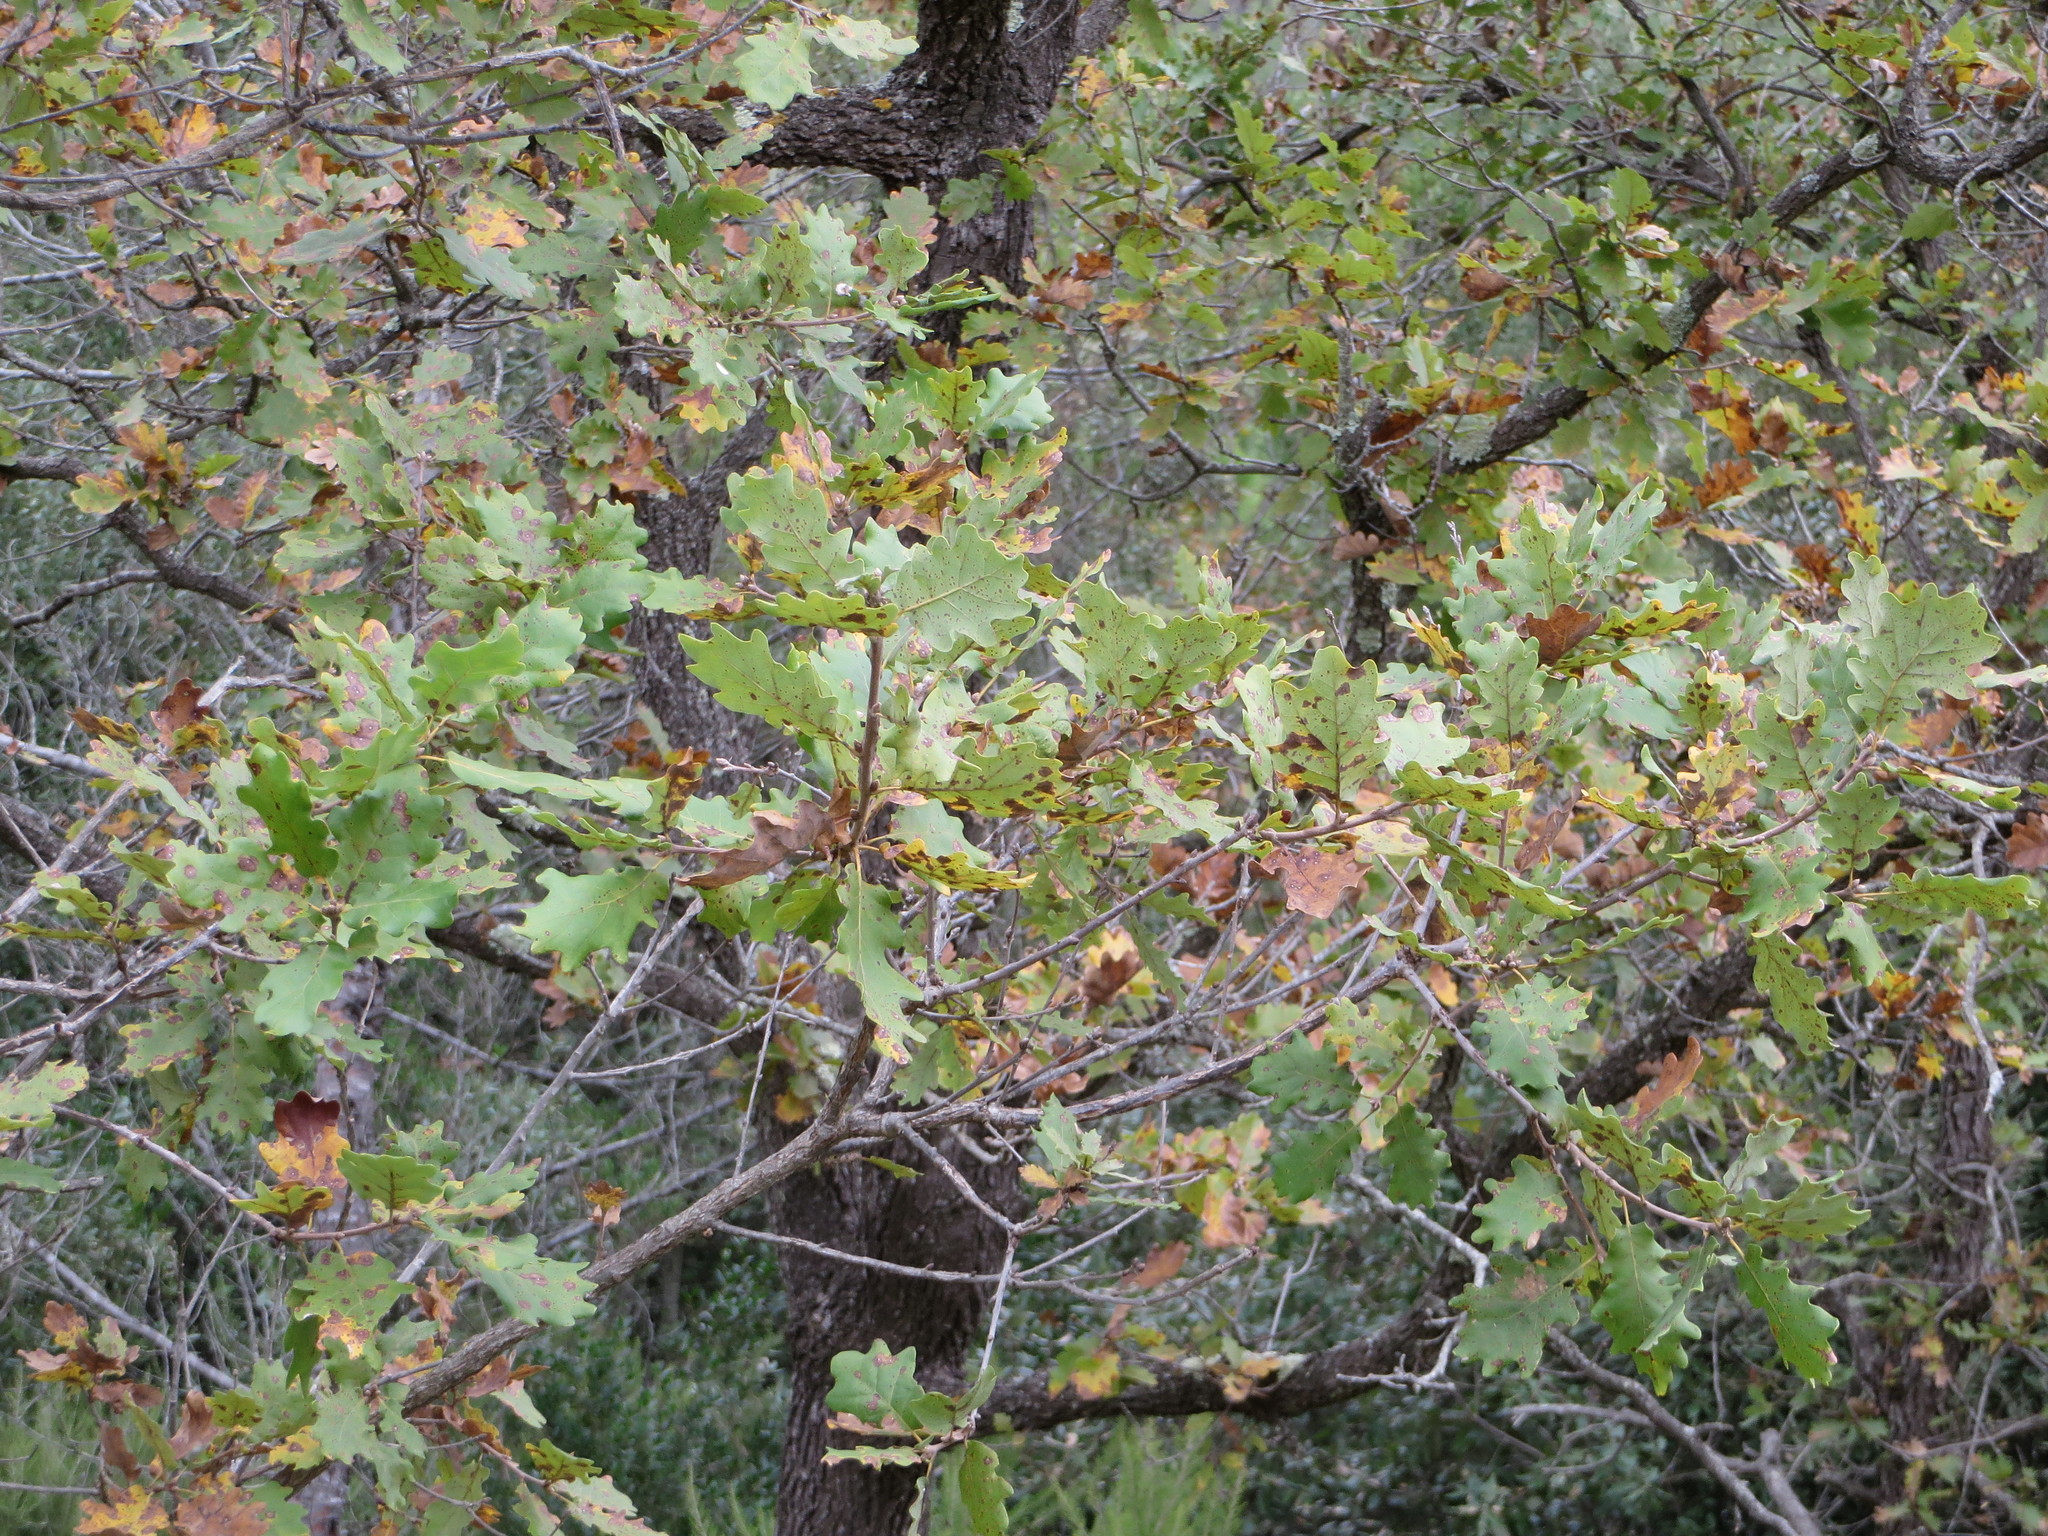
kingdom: Plantae
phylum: Tracheophyta
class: Magnoliopsida
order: Fagales
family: Fagaceae
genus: Quercus
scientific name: Quercus pubescens
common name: Downy oak
